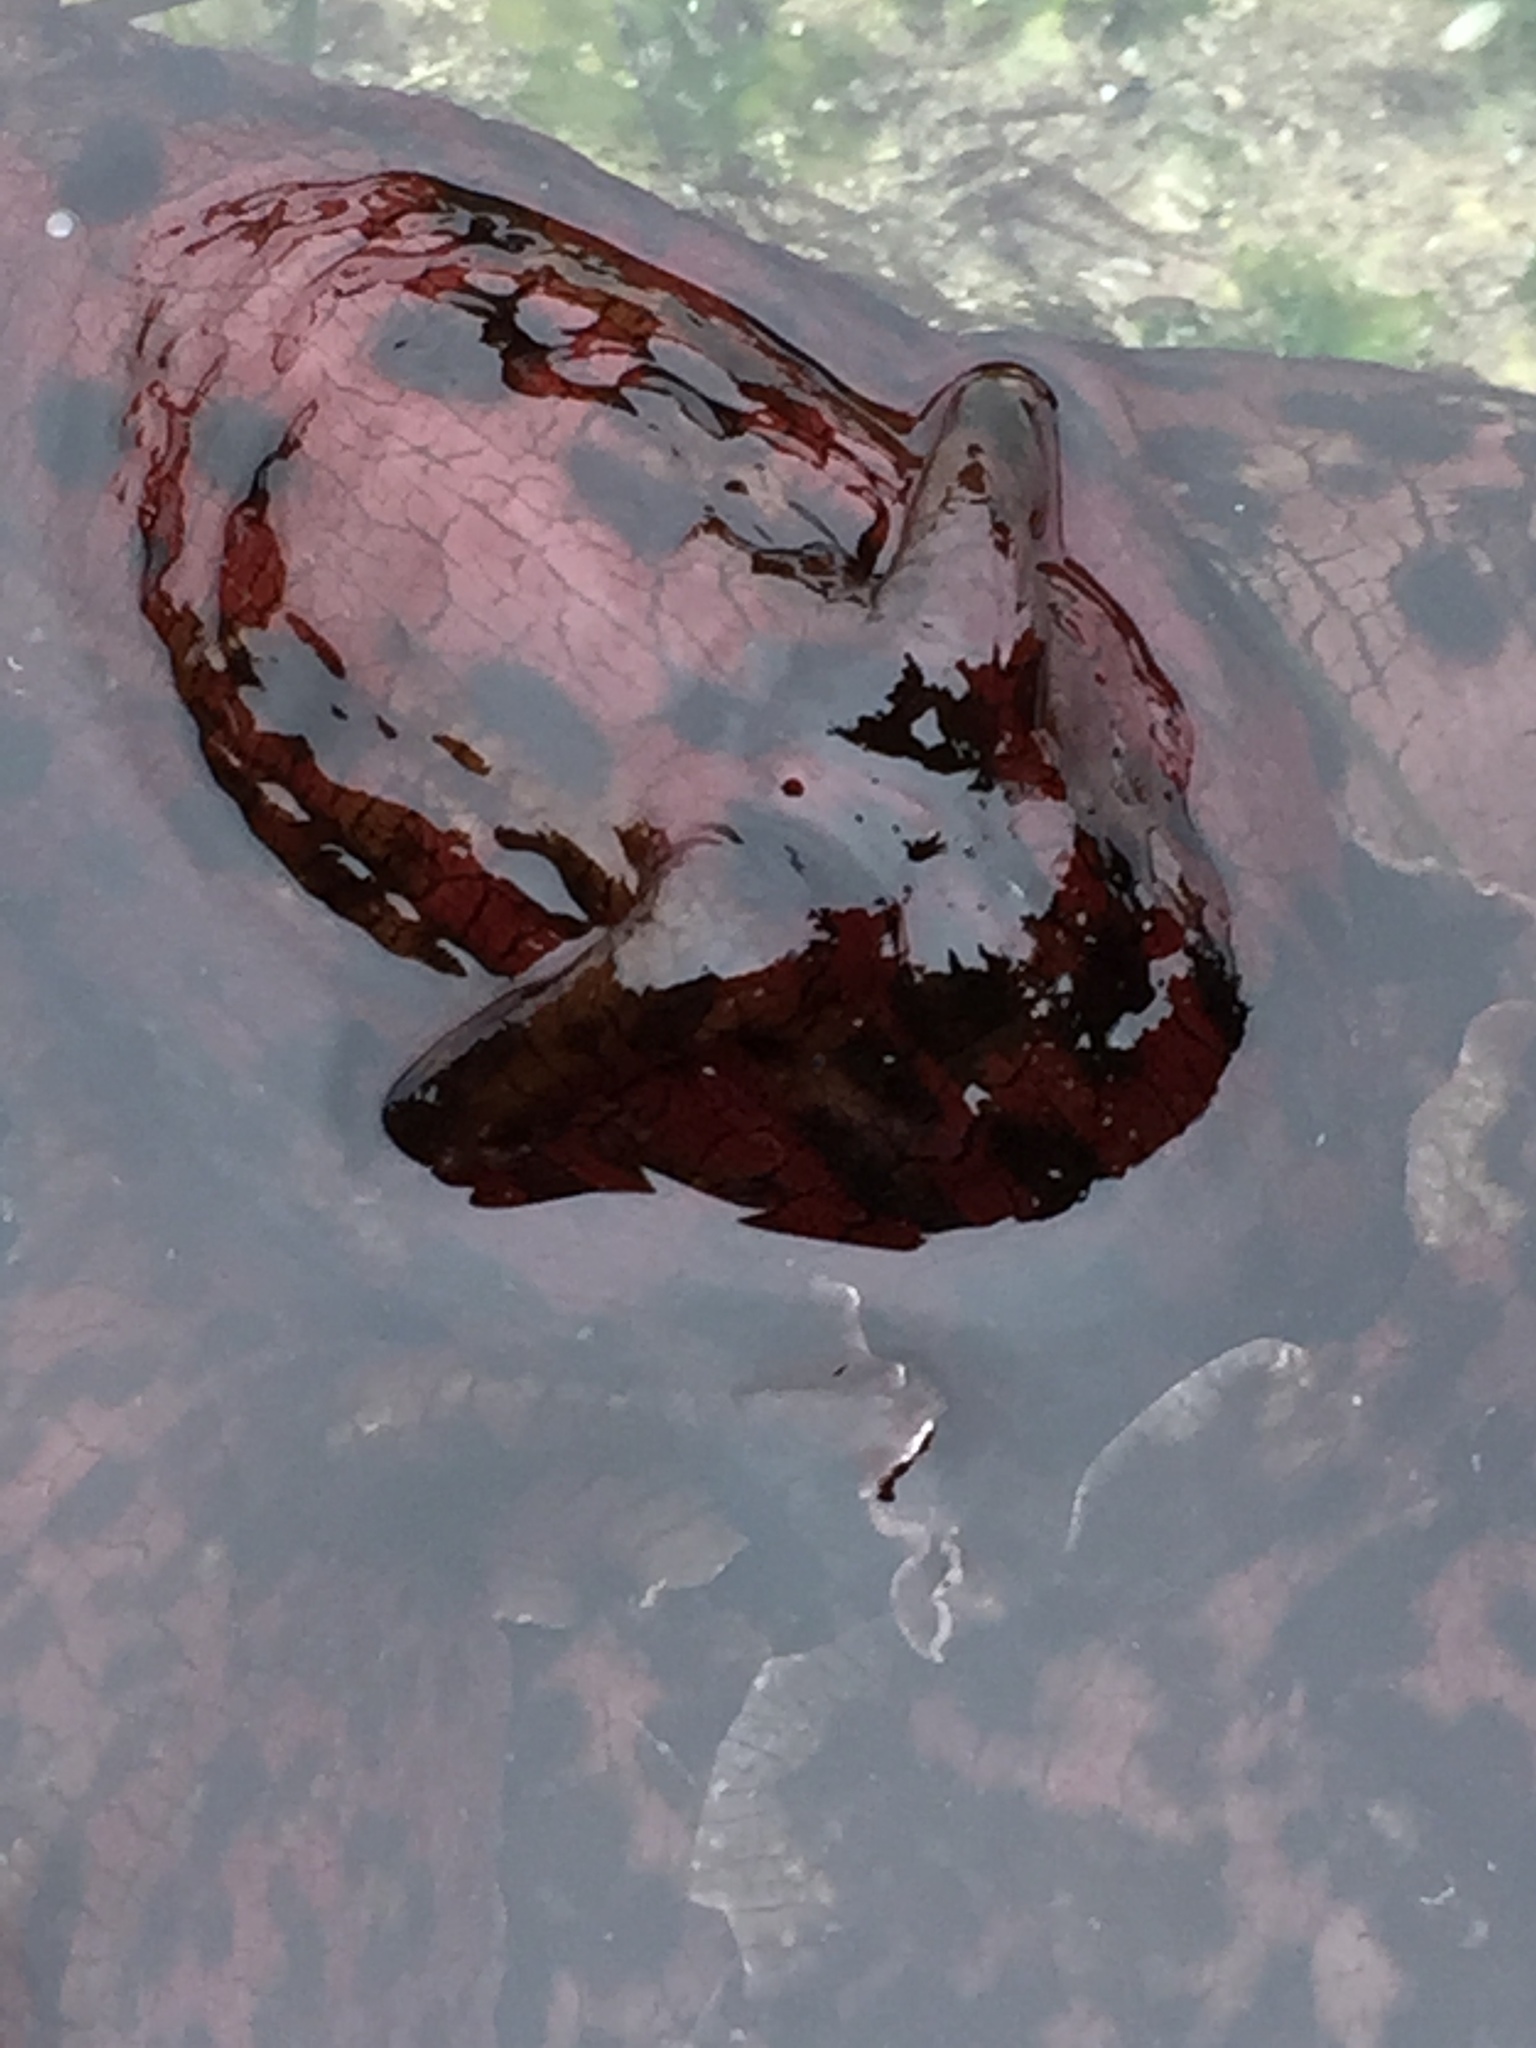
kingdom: Animalia
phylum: Mollusca
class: Gastropoda
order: Aplysiida
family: Aplysiidae
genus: Aplysia
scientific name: Aplysia californica
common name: California seahare
